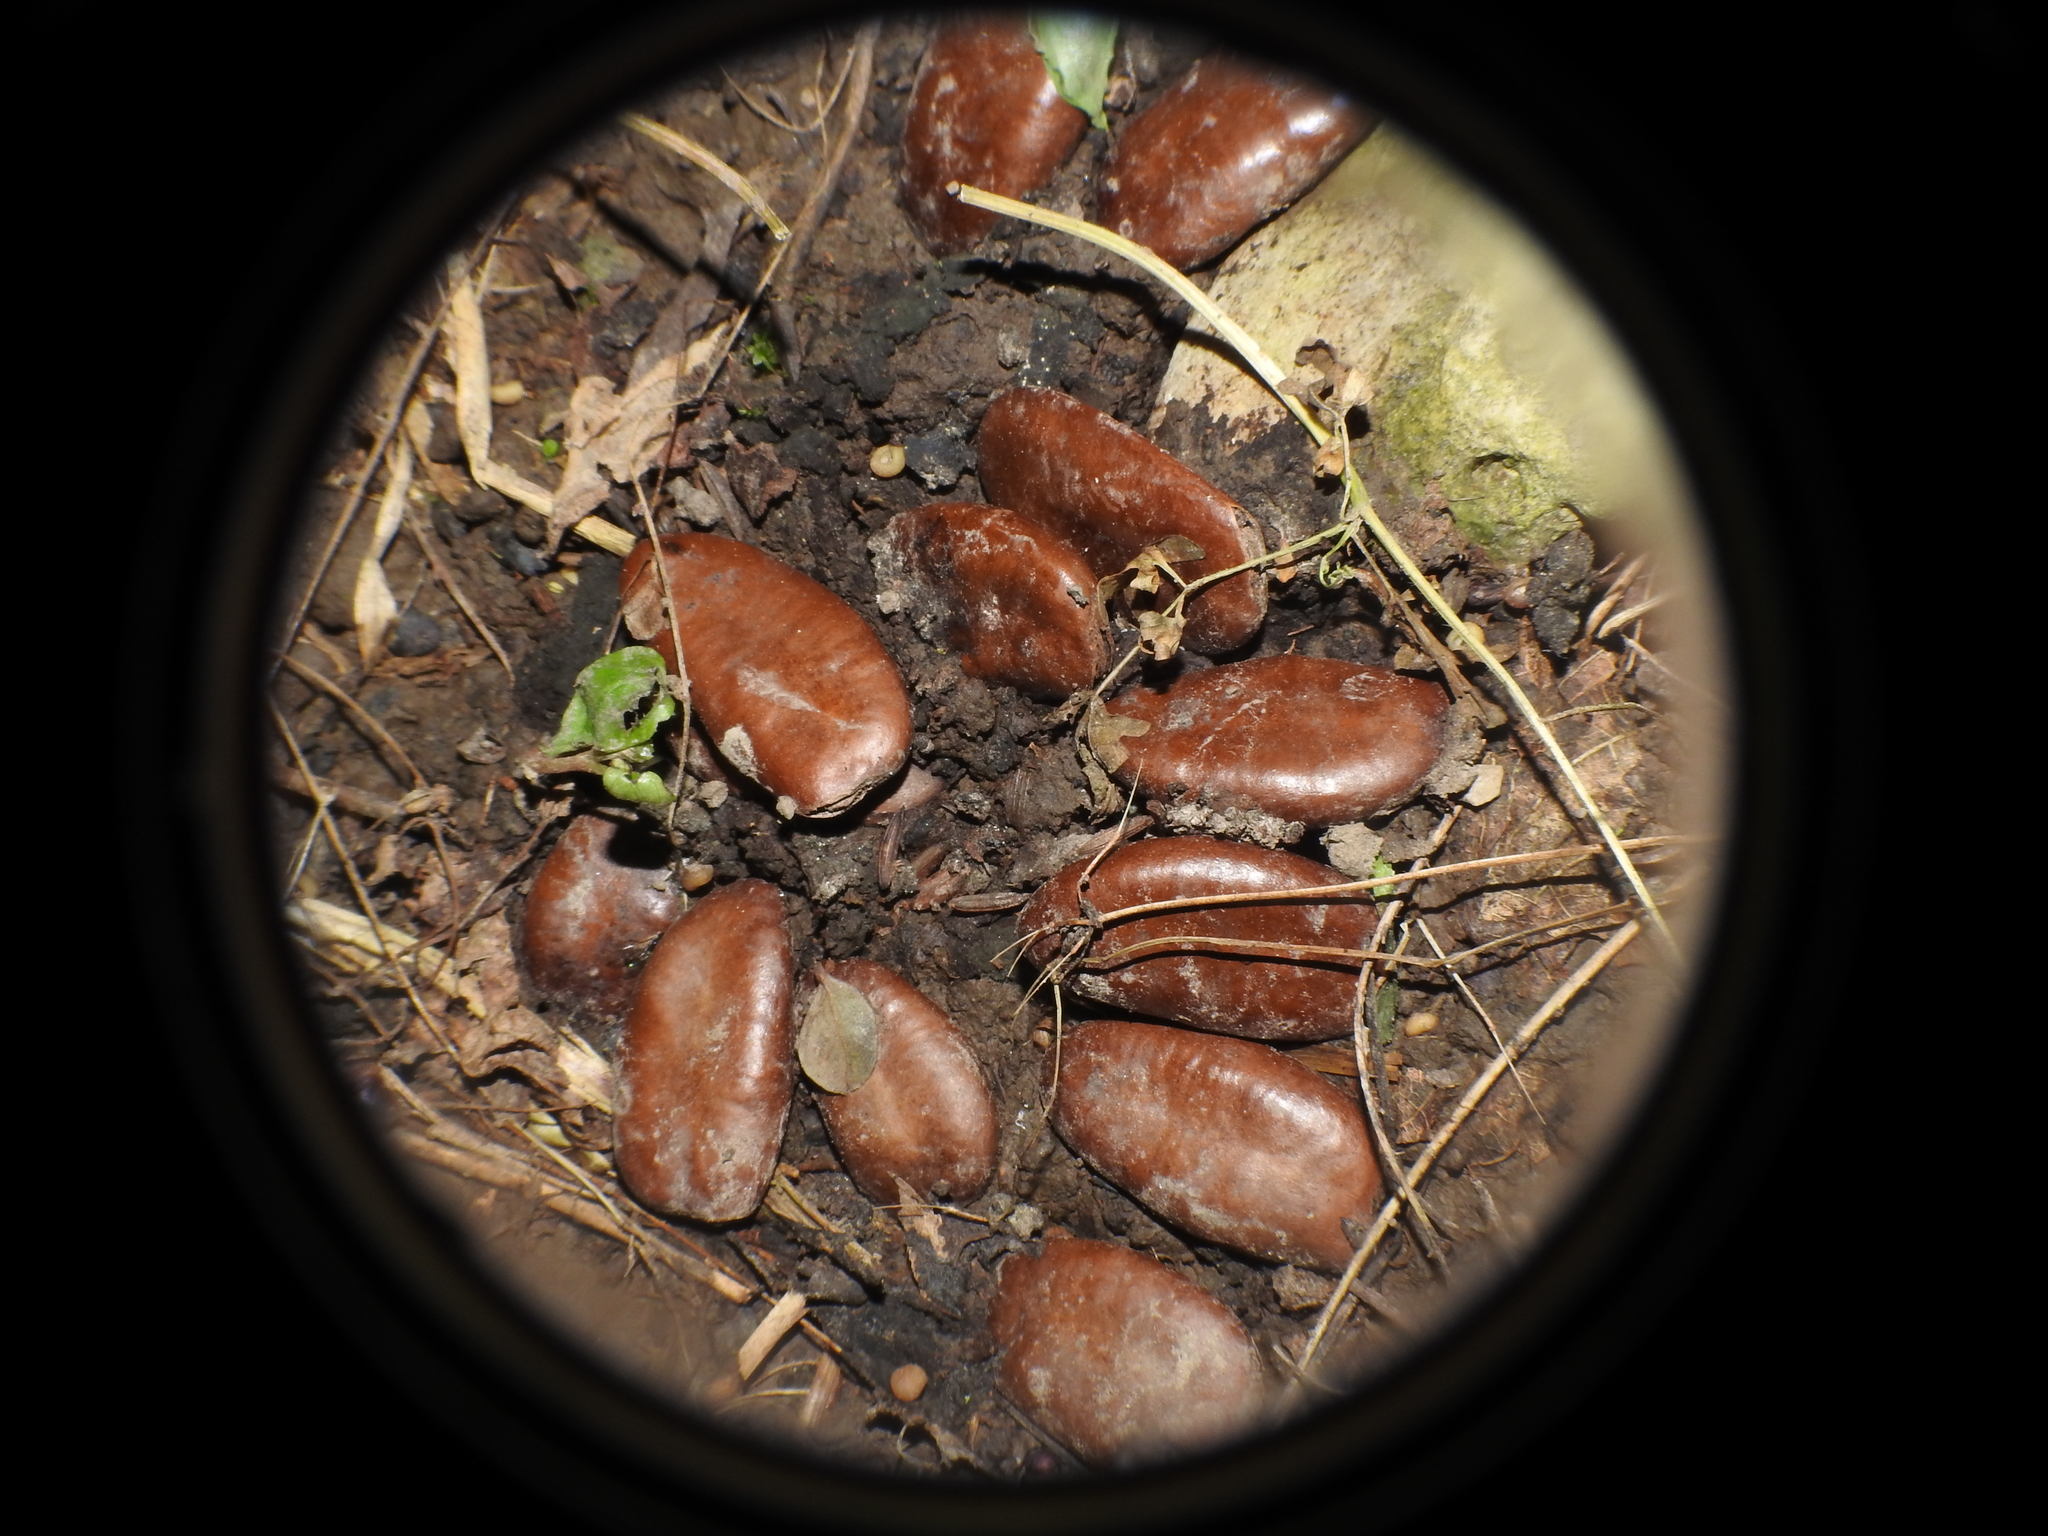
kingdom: Plantae
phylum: Tracheophyta
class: Magnoliopsida
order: Magnoliales
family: Annonaceae
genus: Asimina
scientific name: Asimina triloba
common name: Dog-banana
